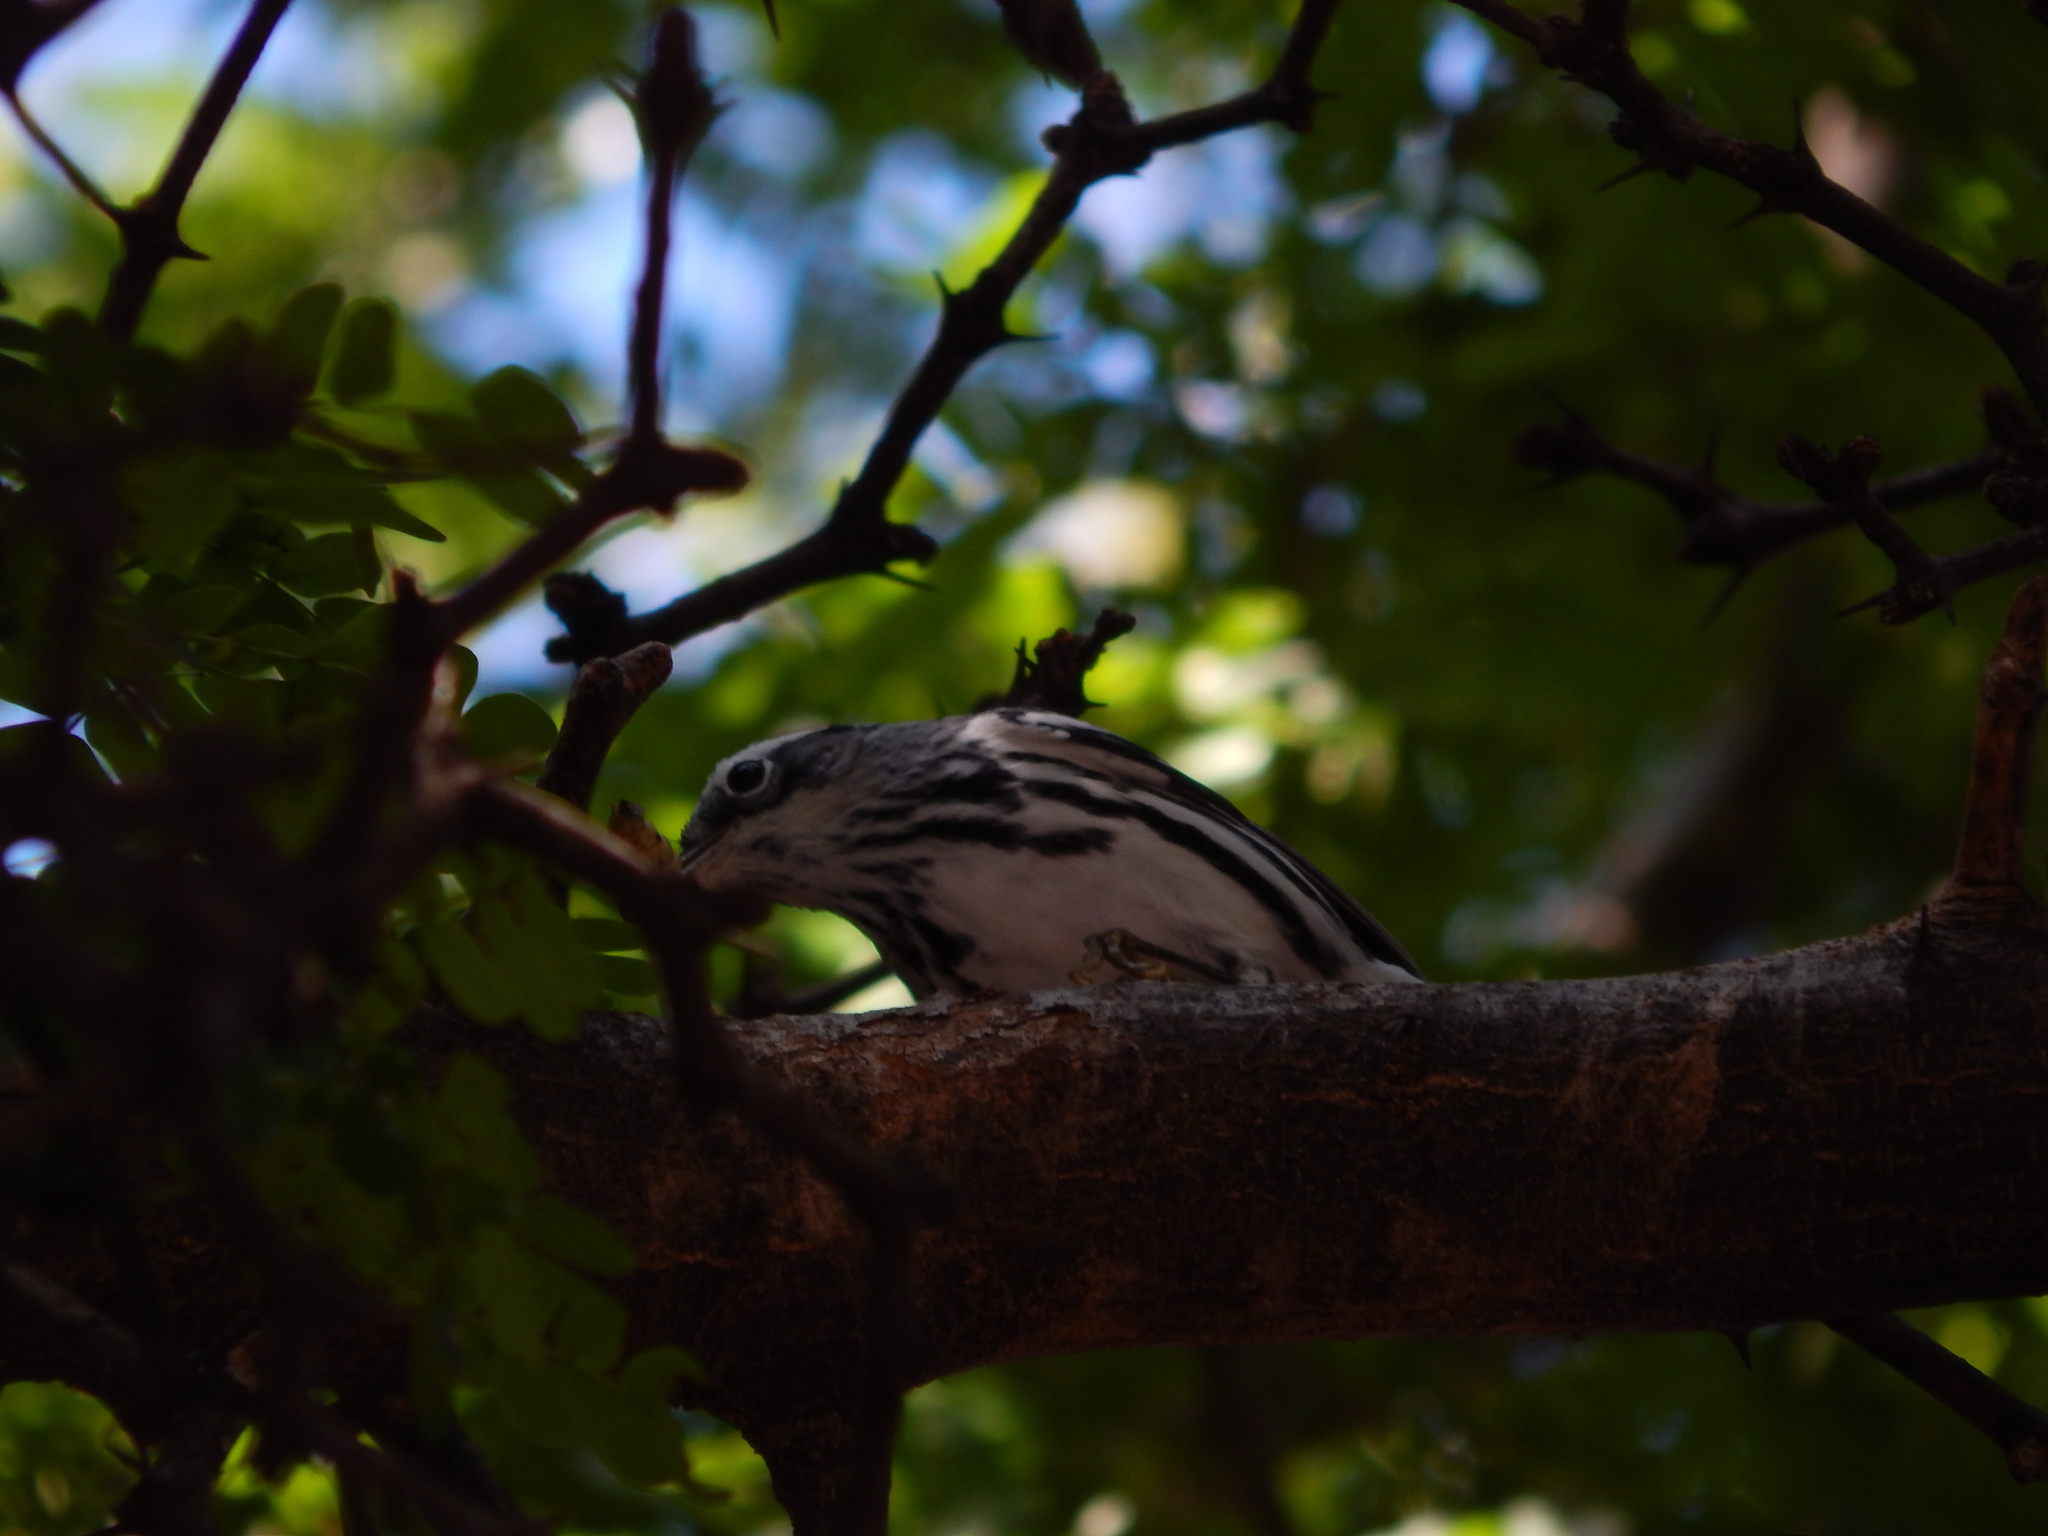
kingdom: Animalia
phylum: Chordata
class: Aves
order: Passeriformes
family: Parulidae
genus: Mniotilta
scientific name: Mniotilta varia
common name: Black-and-white warbler
